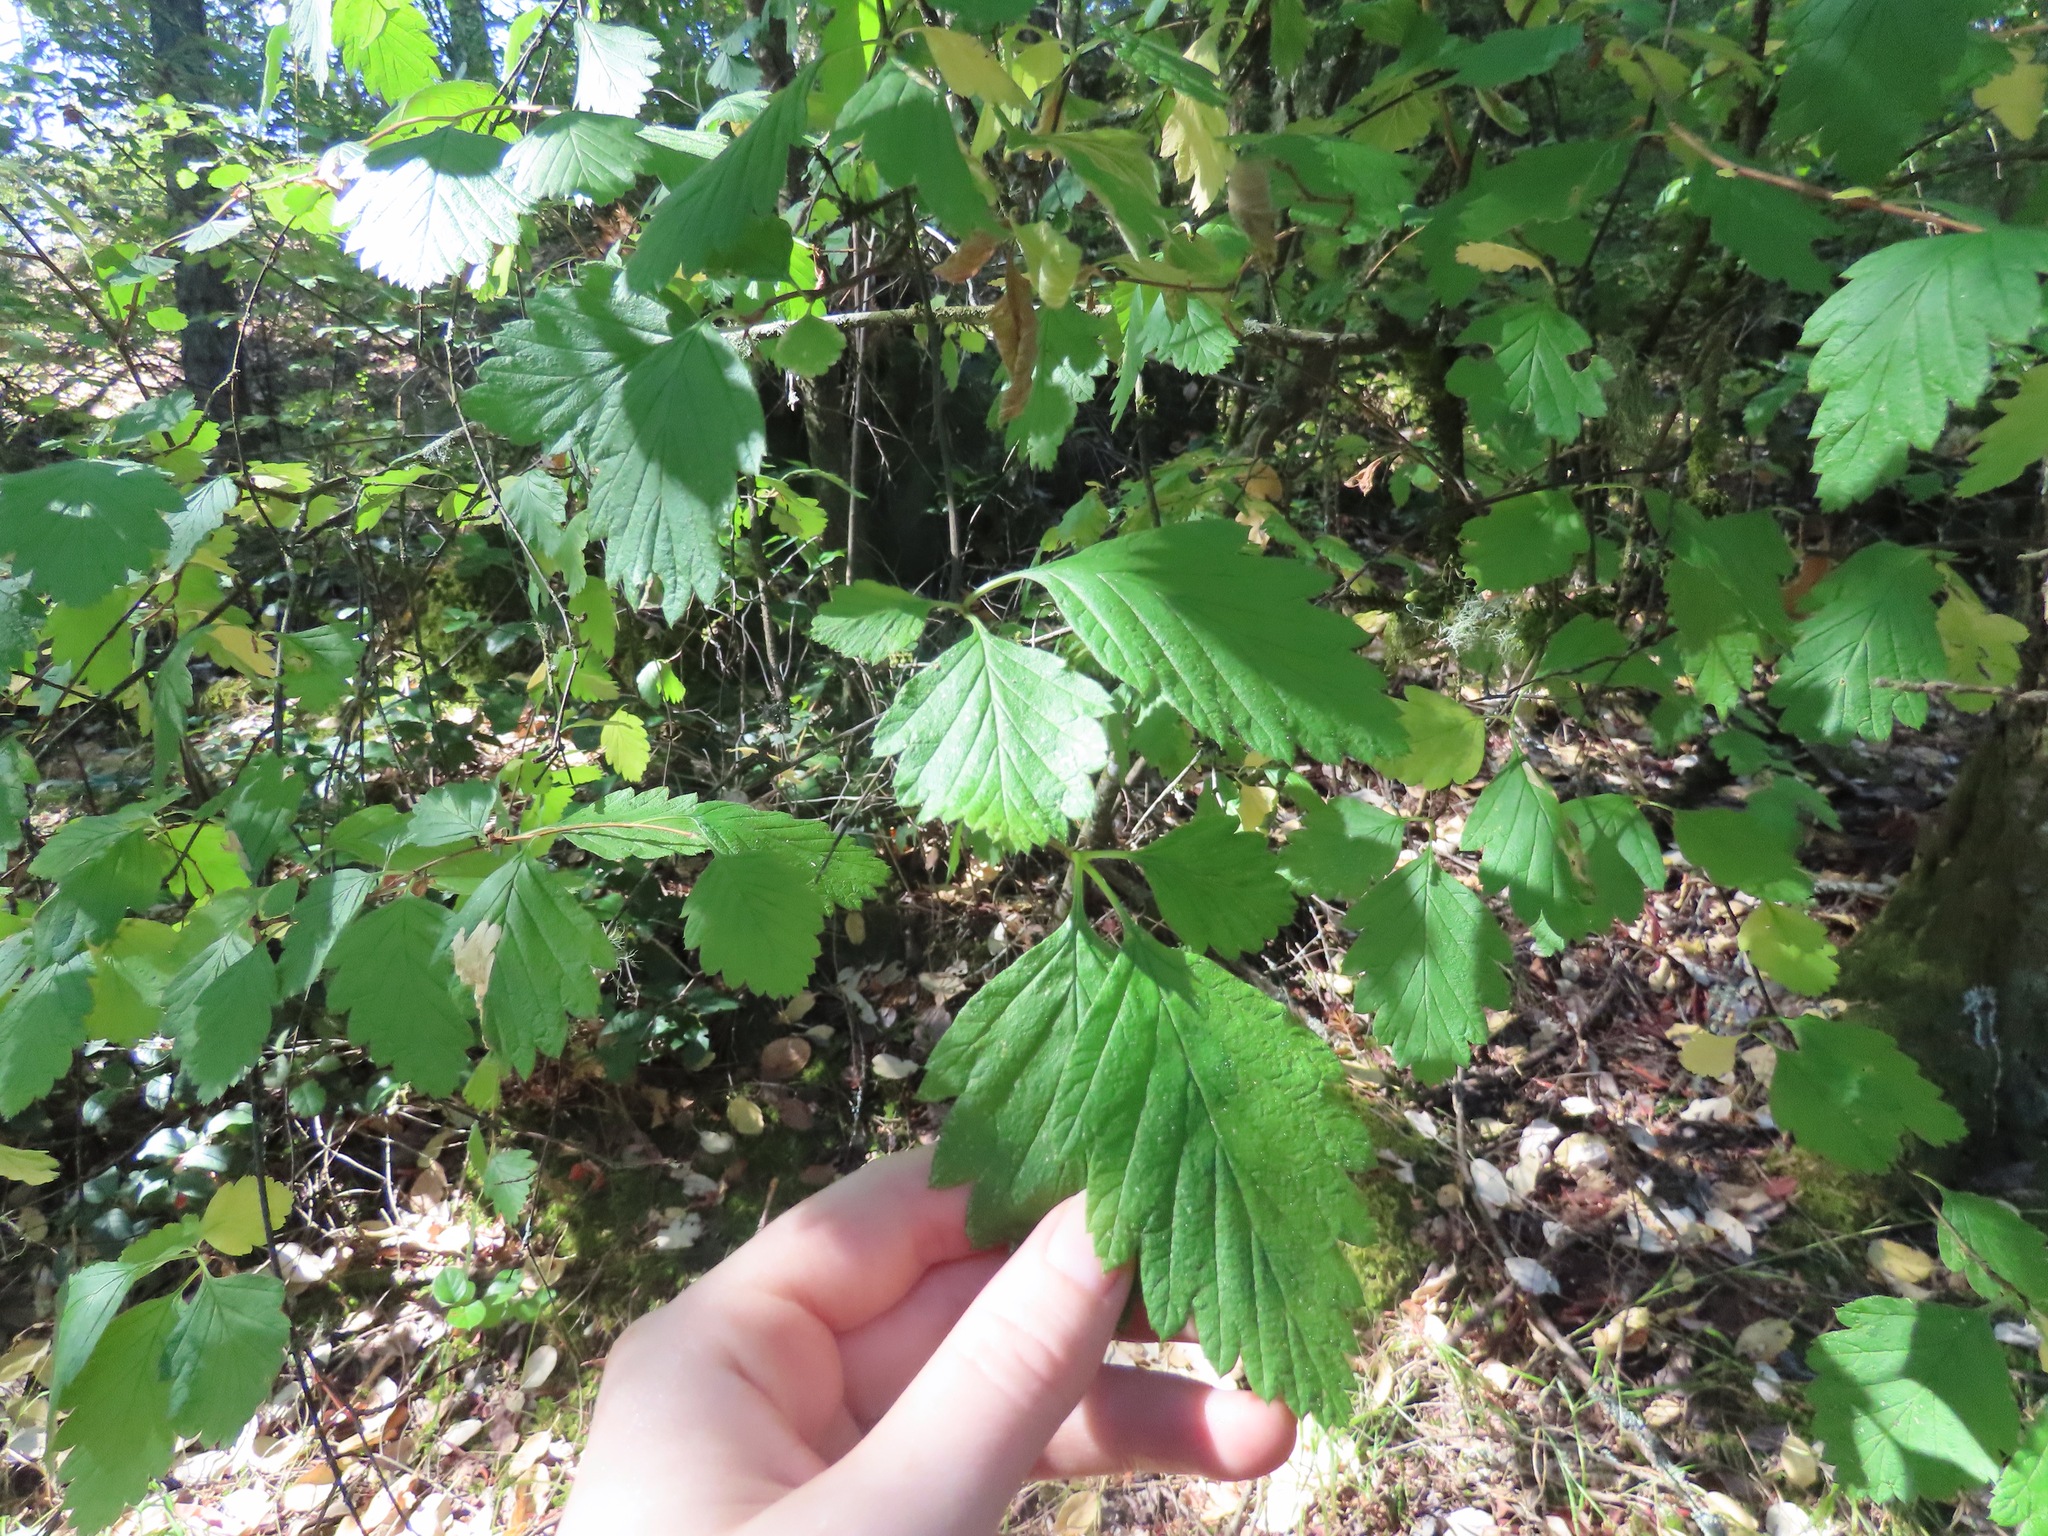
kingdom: Plantae
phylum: Tracheophyta
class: Magnoliopsida
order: Rosales
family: Rosaceae
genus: Holodiscus
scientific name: Holodiscus discolor
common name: Oceanspray
